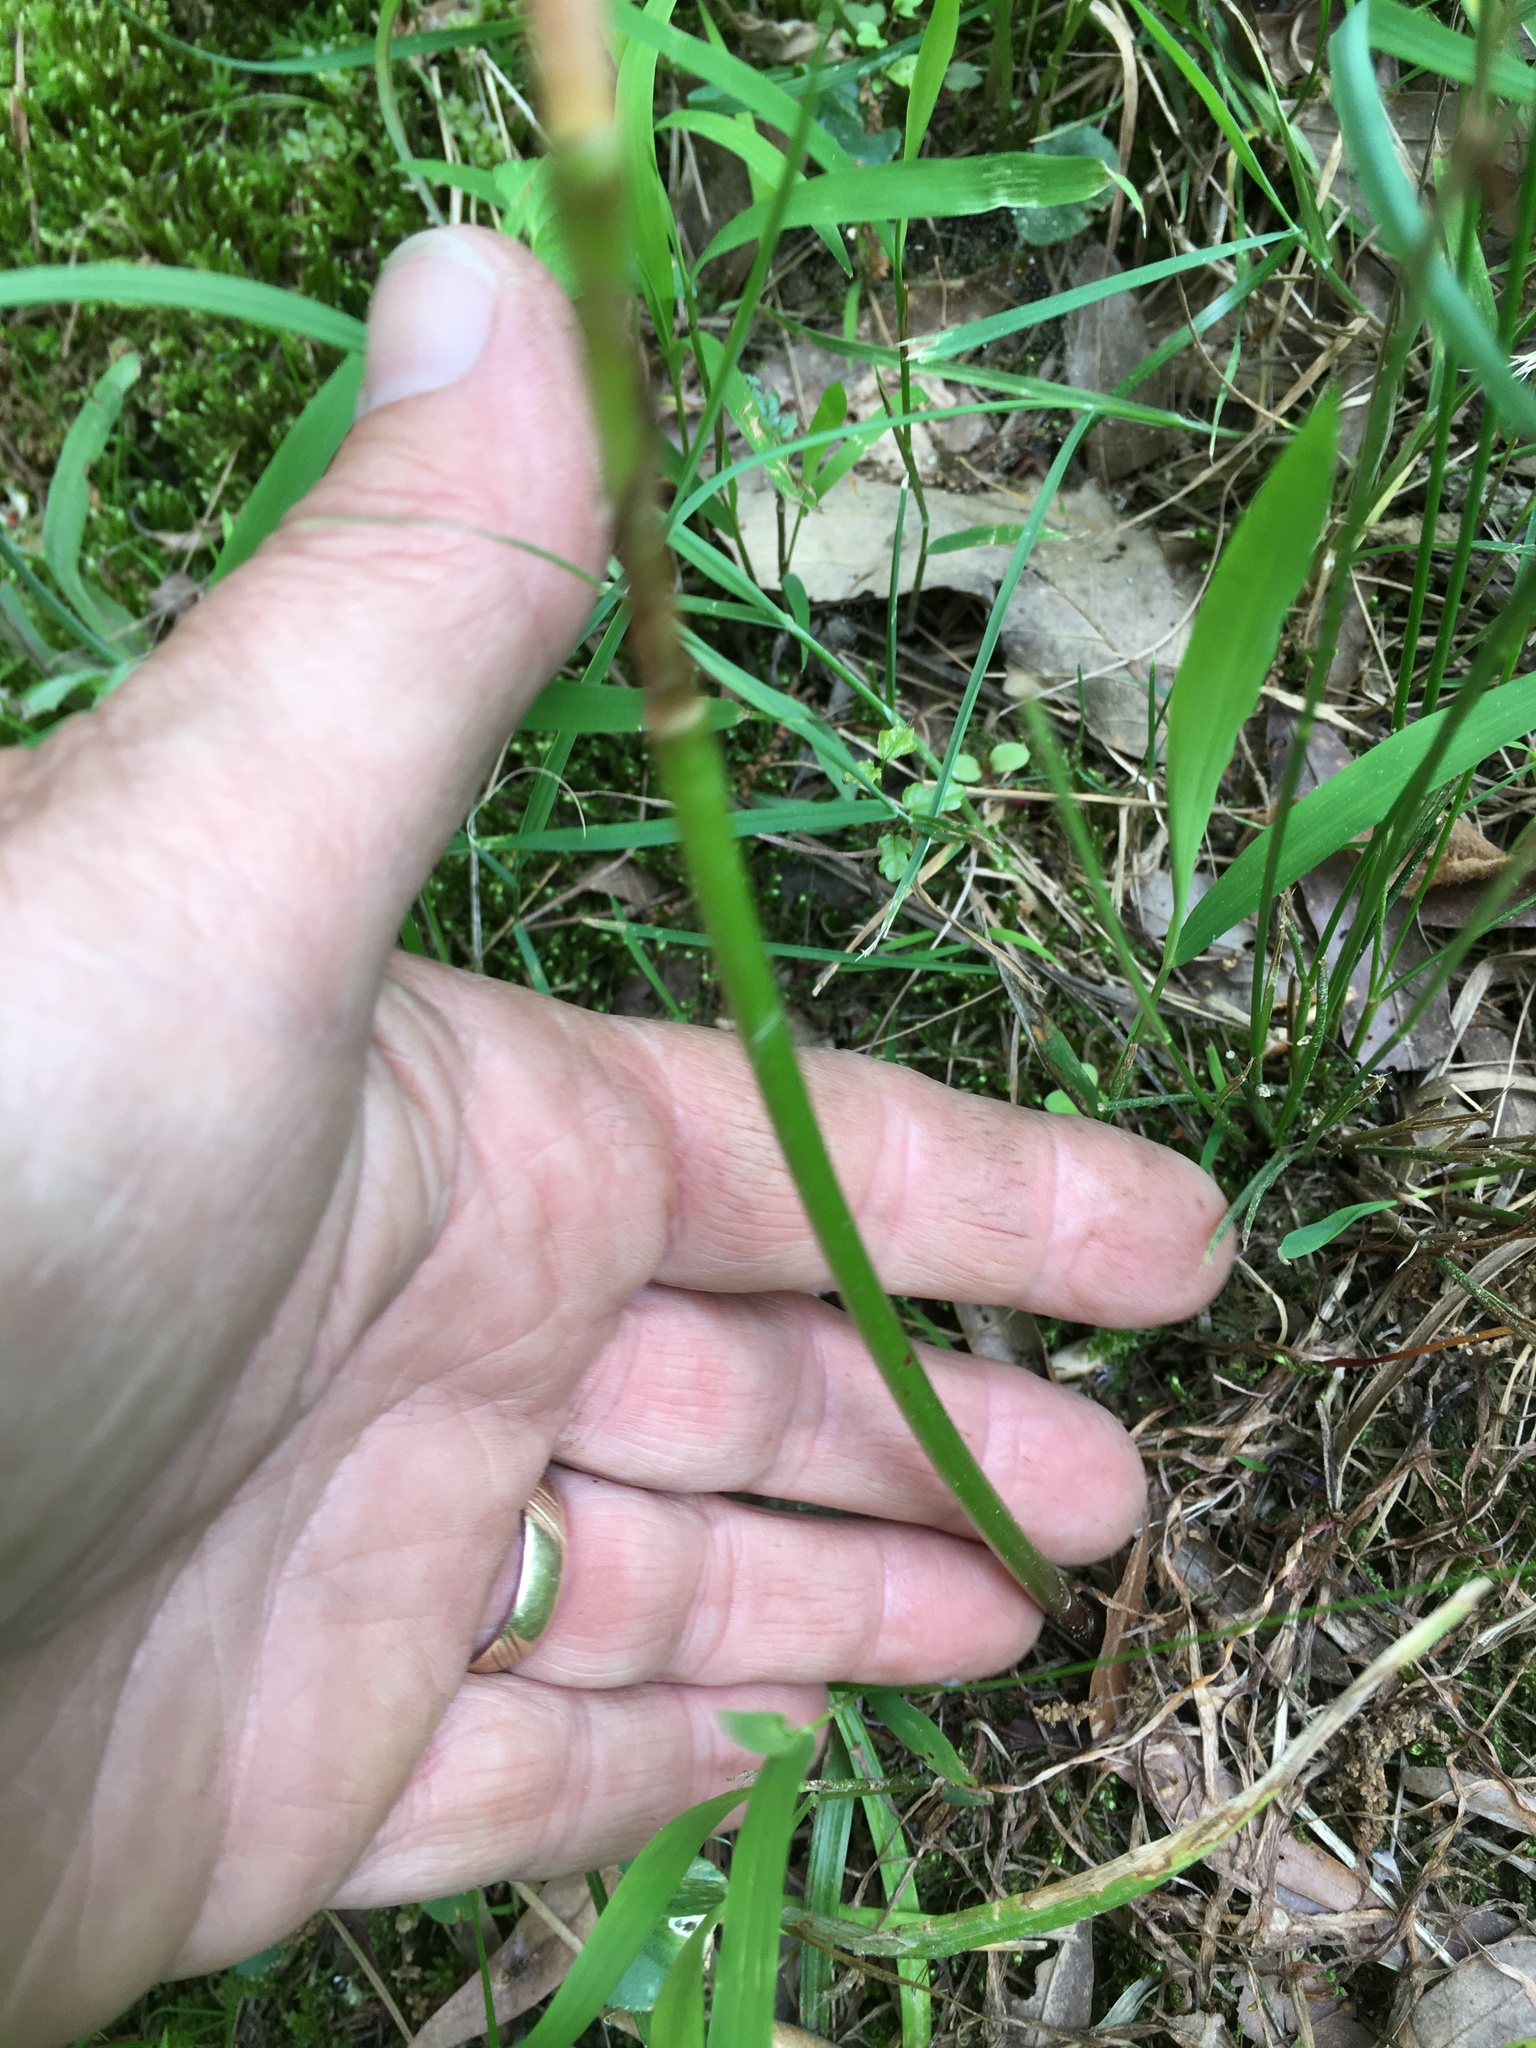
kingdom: Plantae
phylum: Tracheophyta
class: Liliopsida
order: Asparagales
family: Amaryllidaceae
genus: Zephyranthes
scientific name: Zephyranthes atamasco
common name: Atamasco lily
